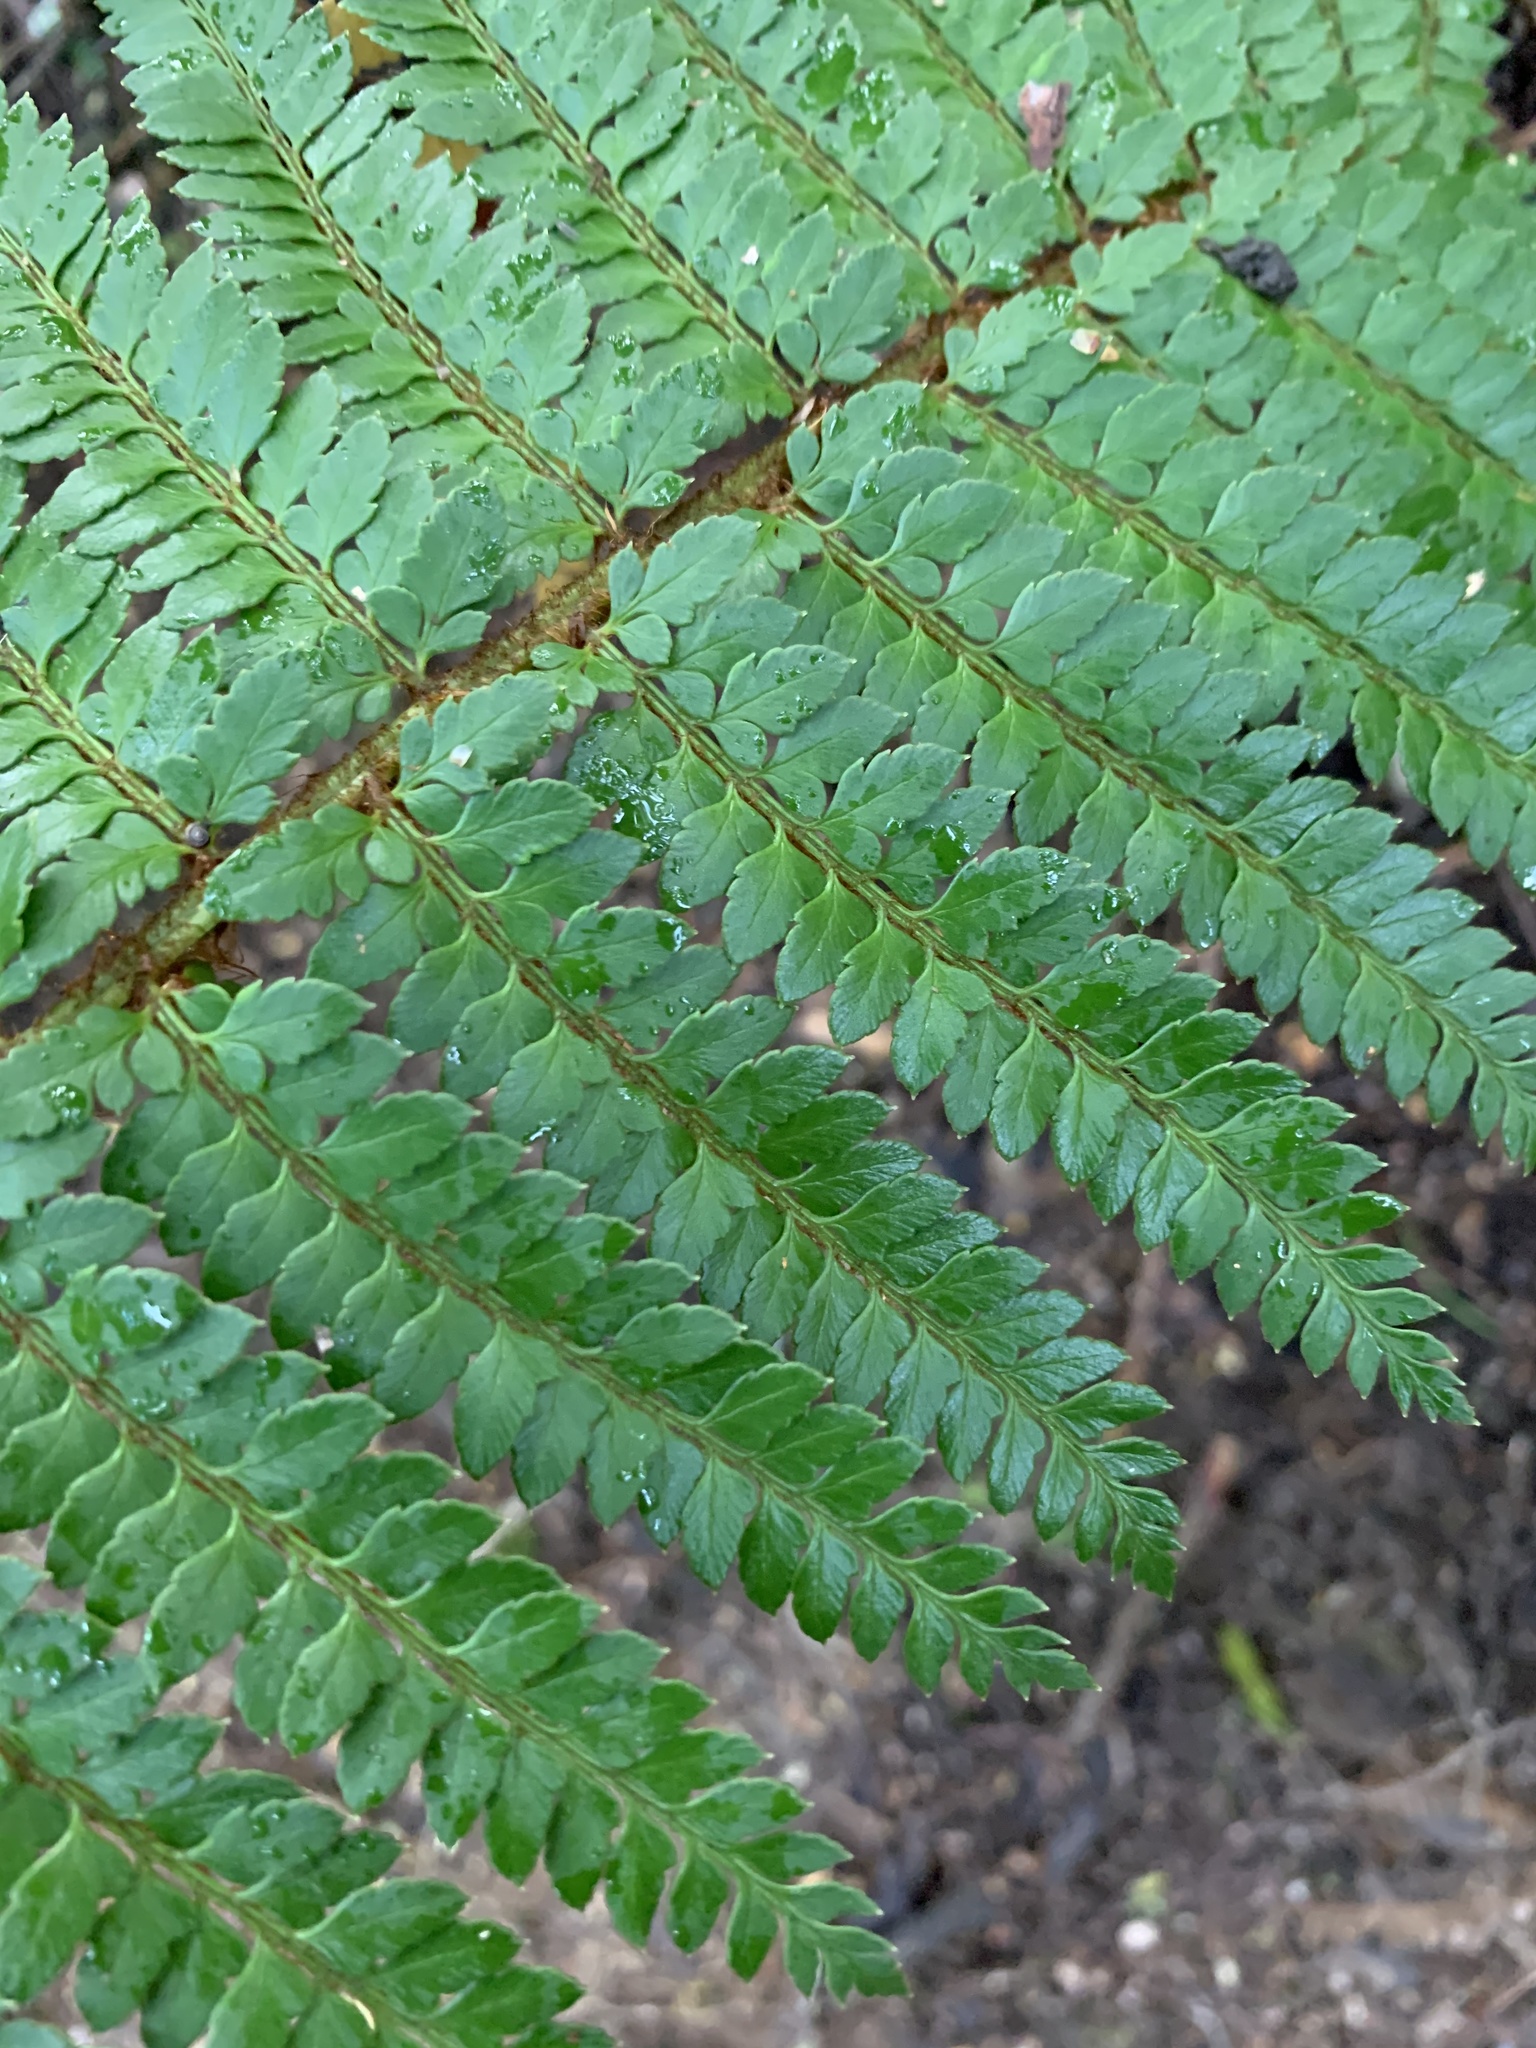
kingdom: Plantae
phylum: Tracheophyta
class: Polypodiopsida
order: Polypodiales
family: Dryopteridaceae
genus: Polystichum
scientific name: Polystichum proliferum
